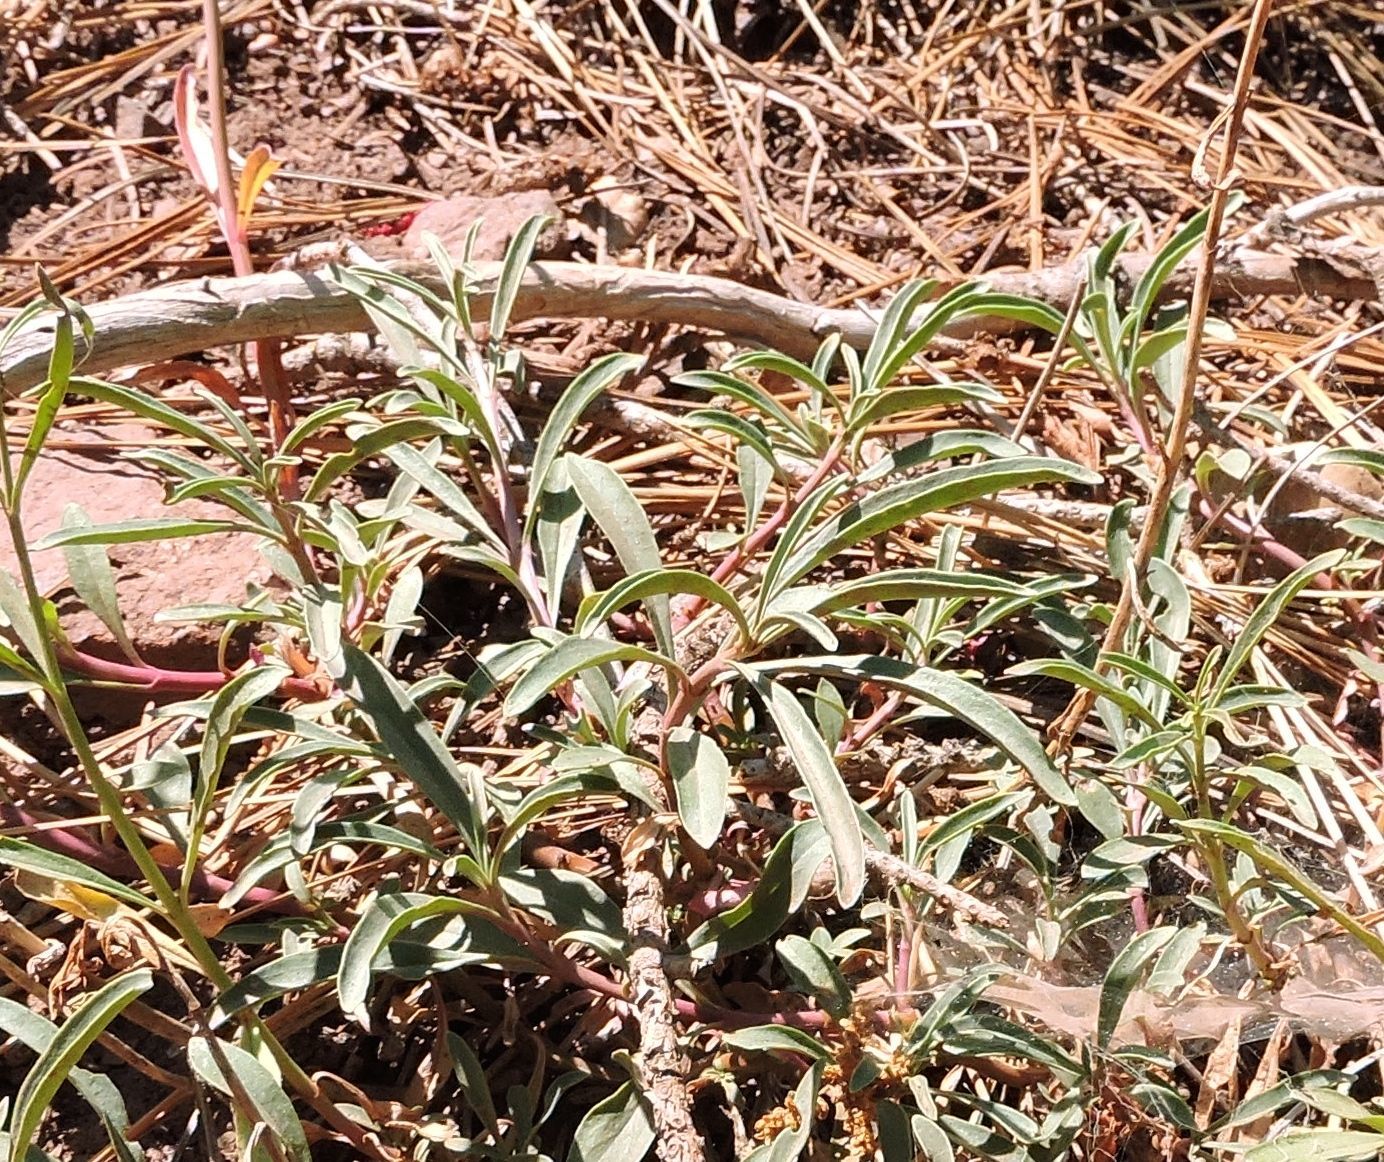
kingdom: Plantae
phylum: Tracheophyta
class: Magnoliopsida
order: Lamiales
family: Plantaginaceae
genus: Penstemon
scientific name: Penstemon rostriflorus
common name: Bridges's penstemon
